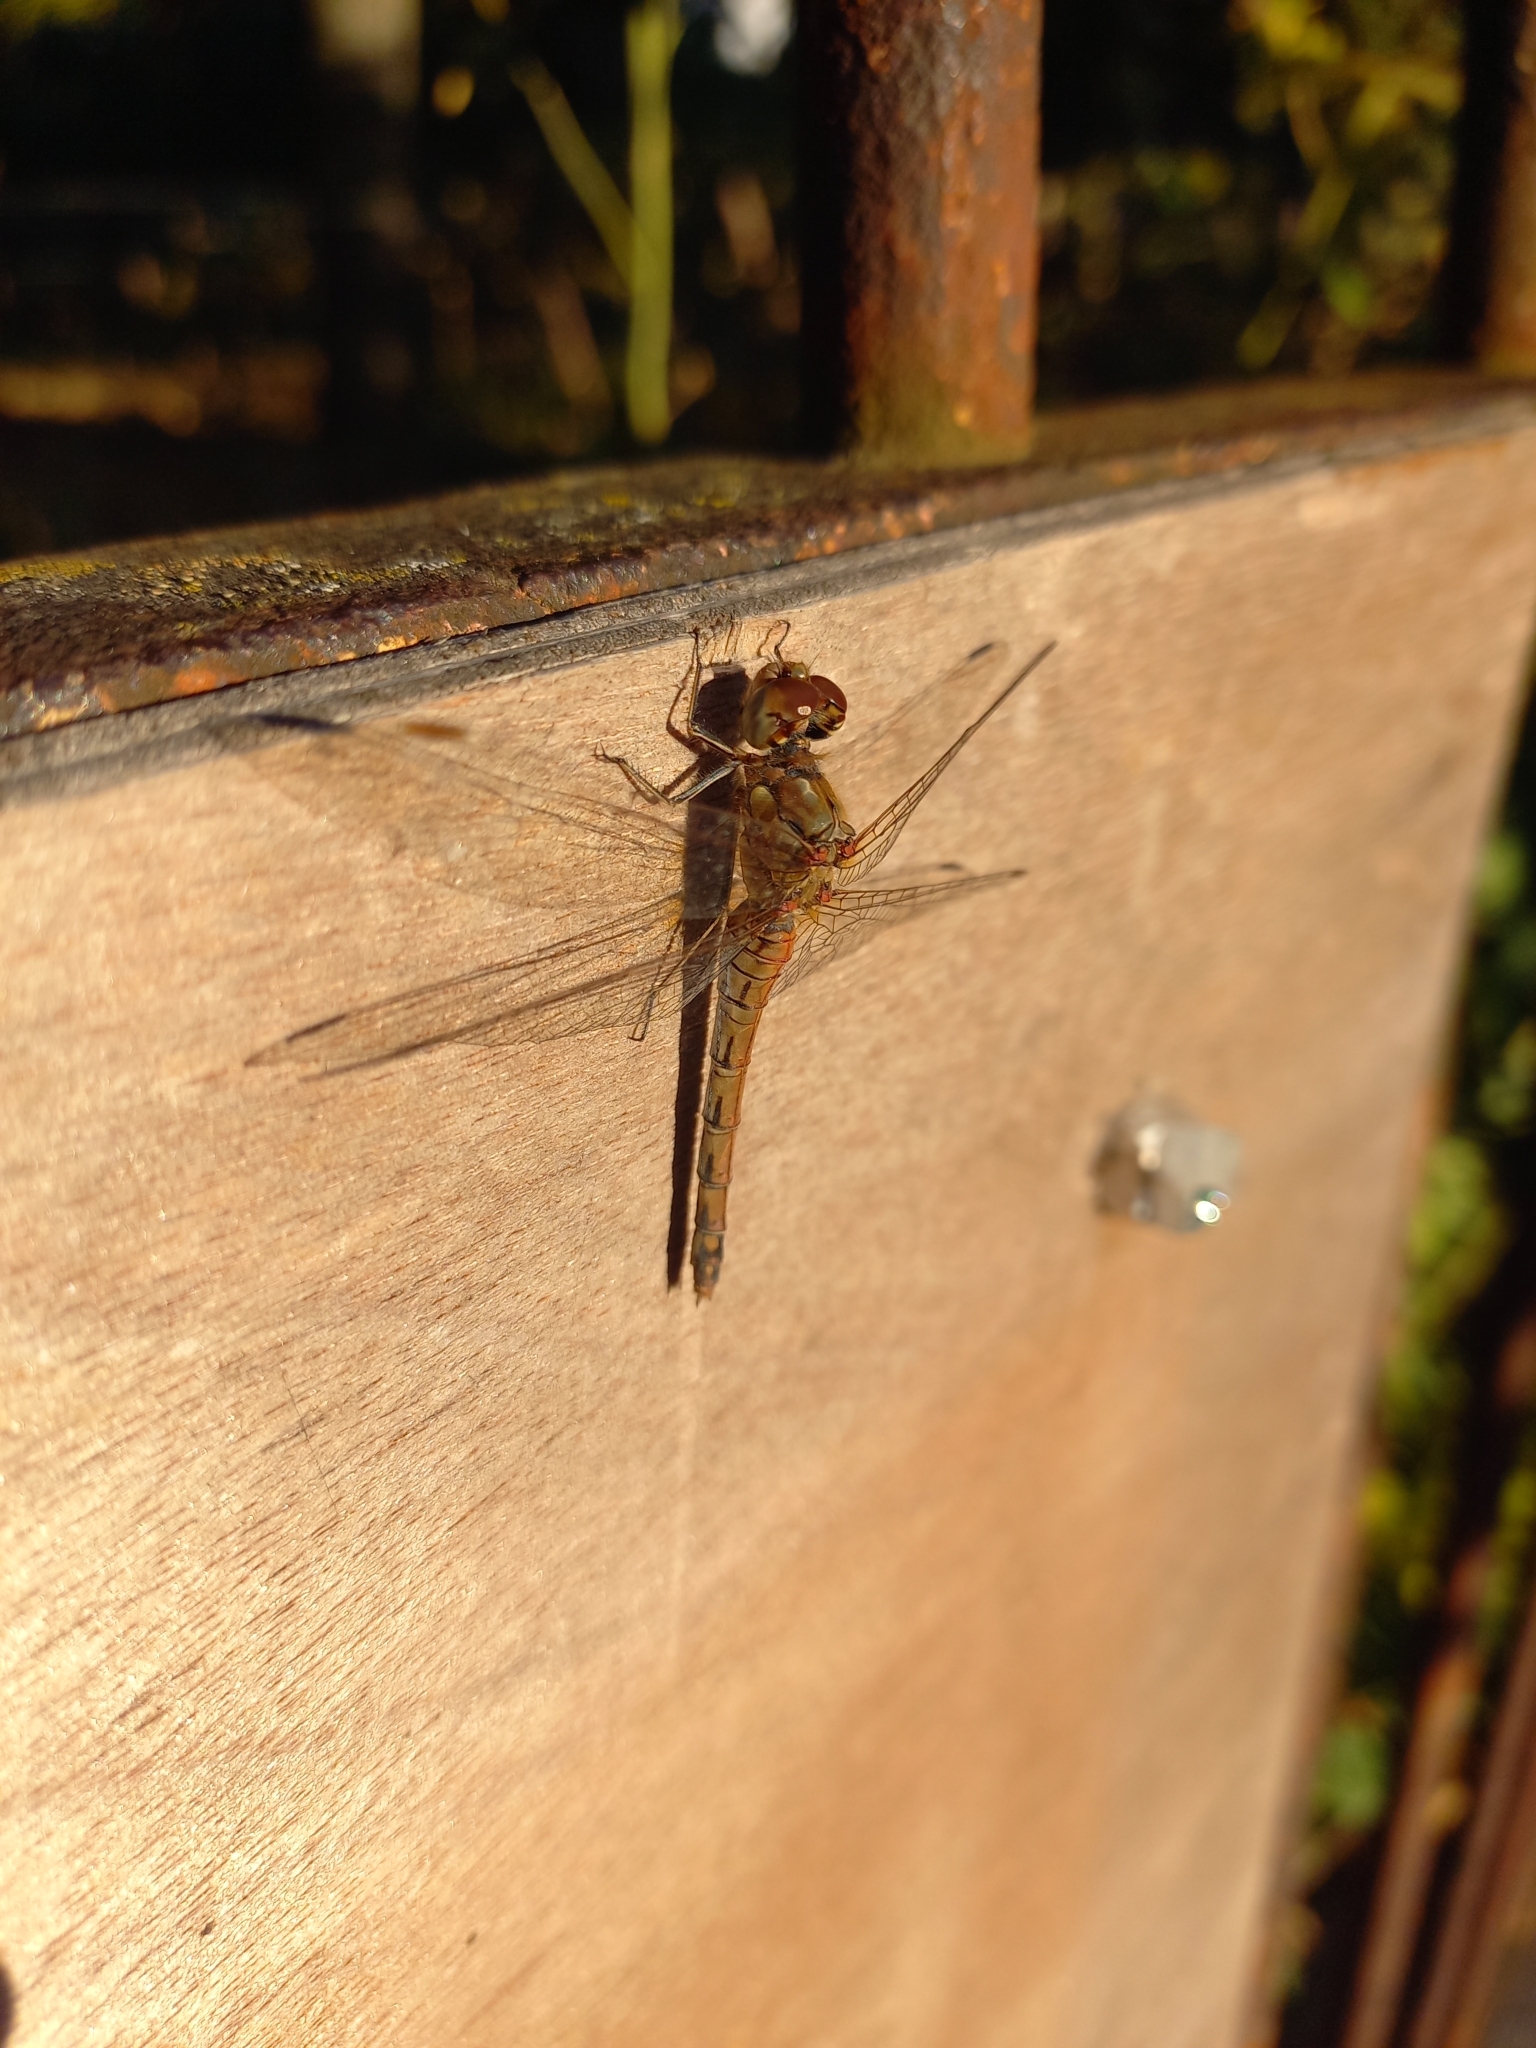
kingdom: Animalia
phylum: Arthropoda
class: Insecta
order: Odonata
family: Libellulidae
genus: Sympetrum
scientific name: Sympetrum striolatum
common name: Common darter
